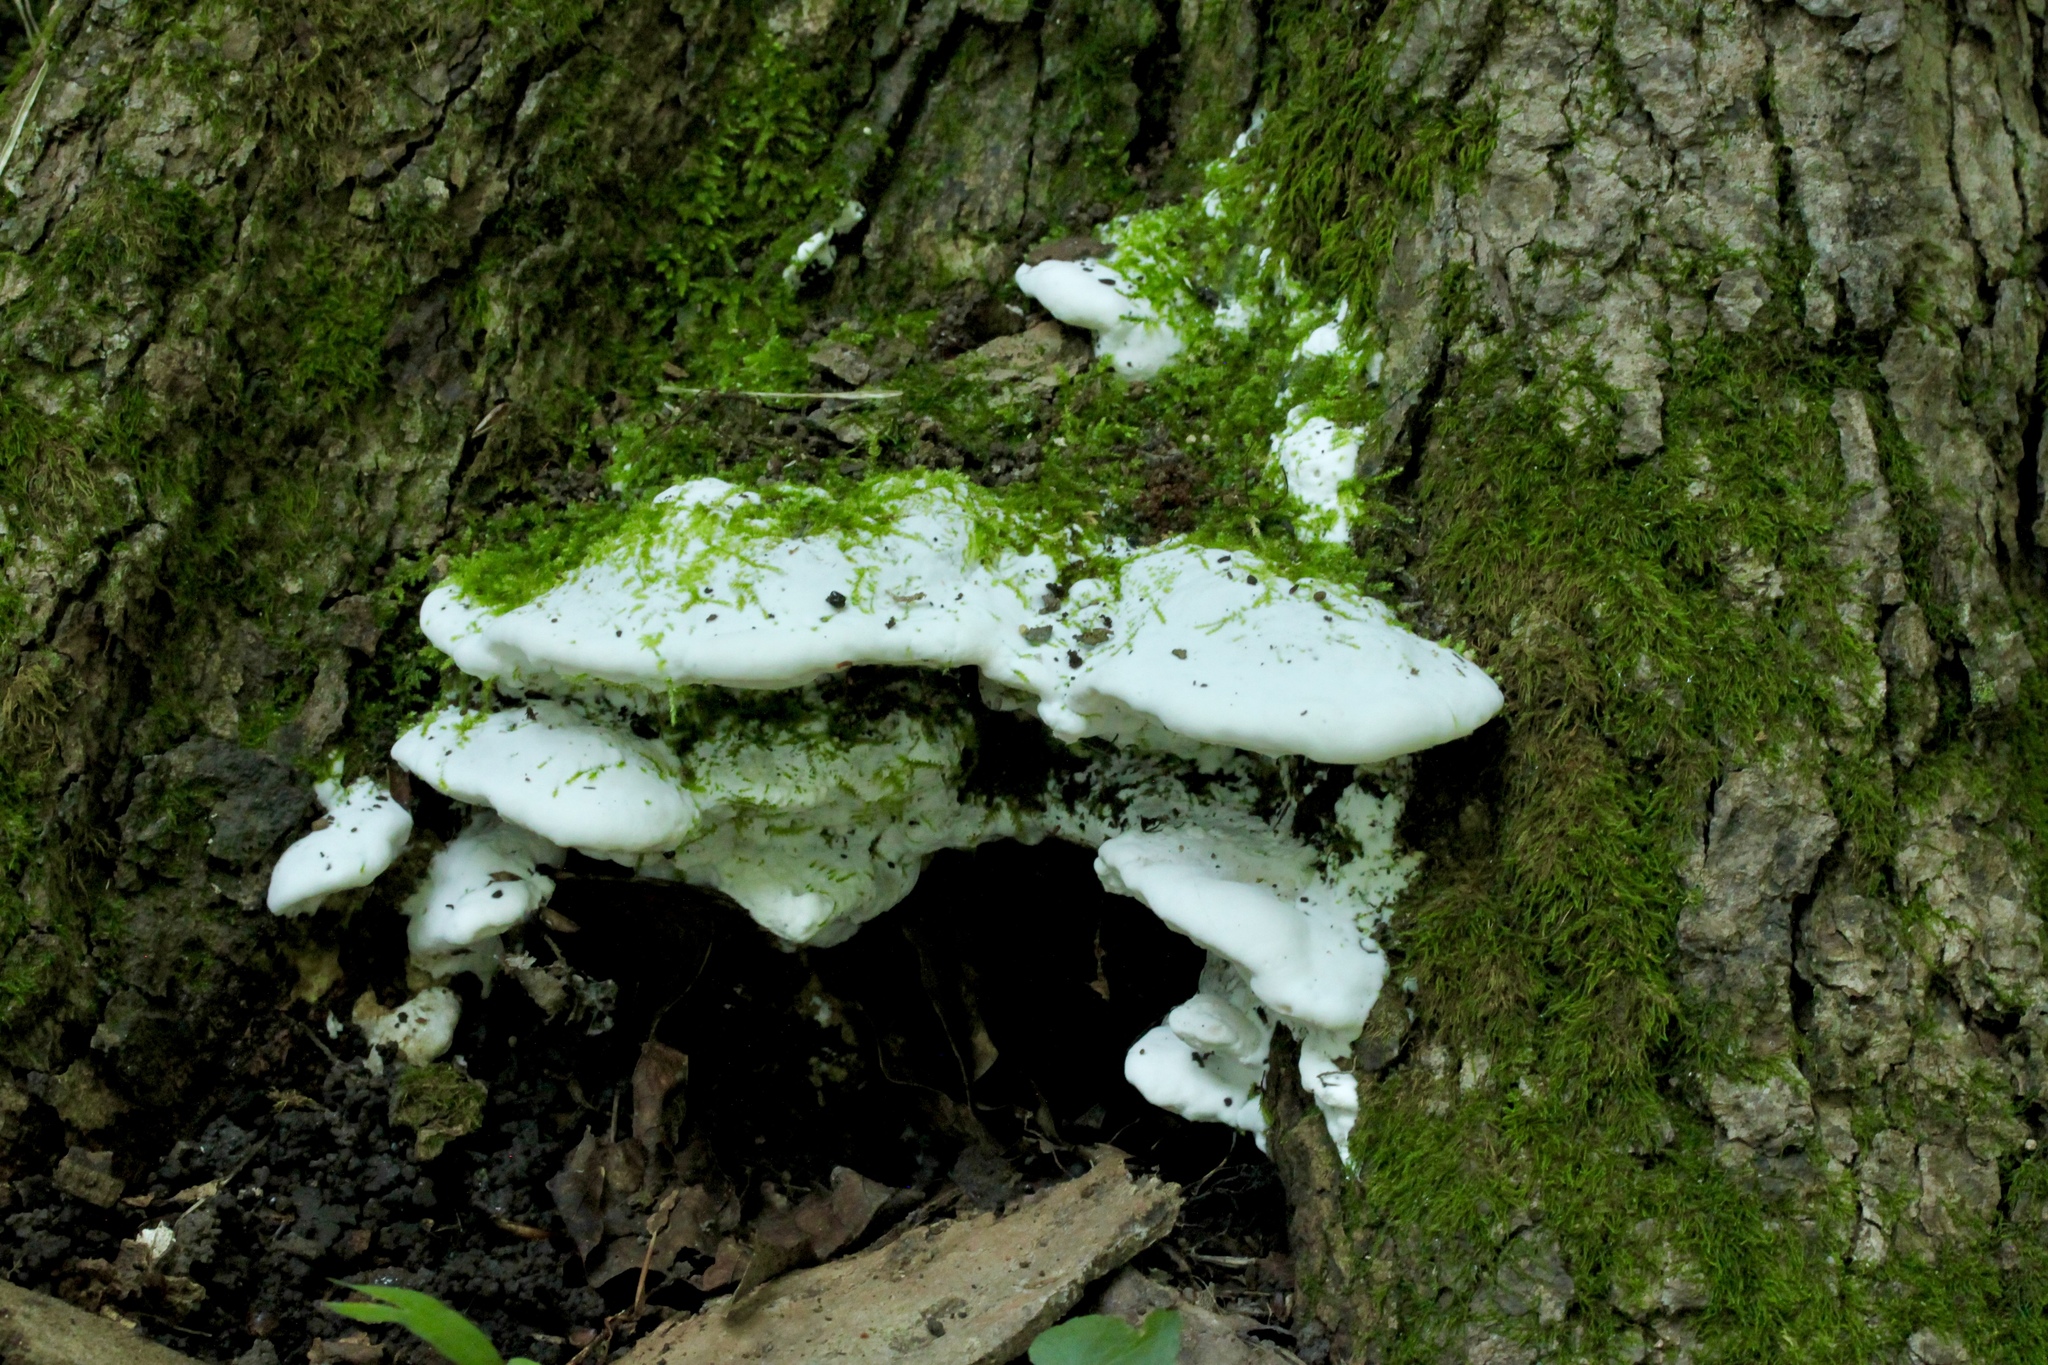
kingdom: Fungi
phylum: Basidiomycota
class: Agaricomycetes
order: Polyporales
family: Cerrenaceae
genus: Cerrena
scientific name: Cerrena unicolor
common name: Mossy maze polypore
